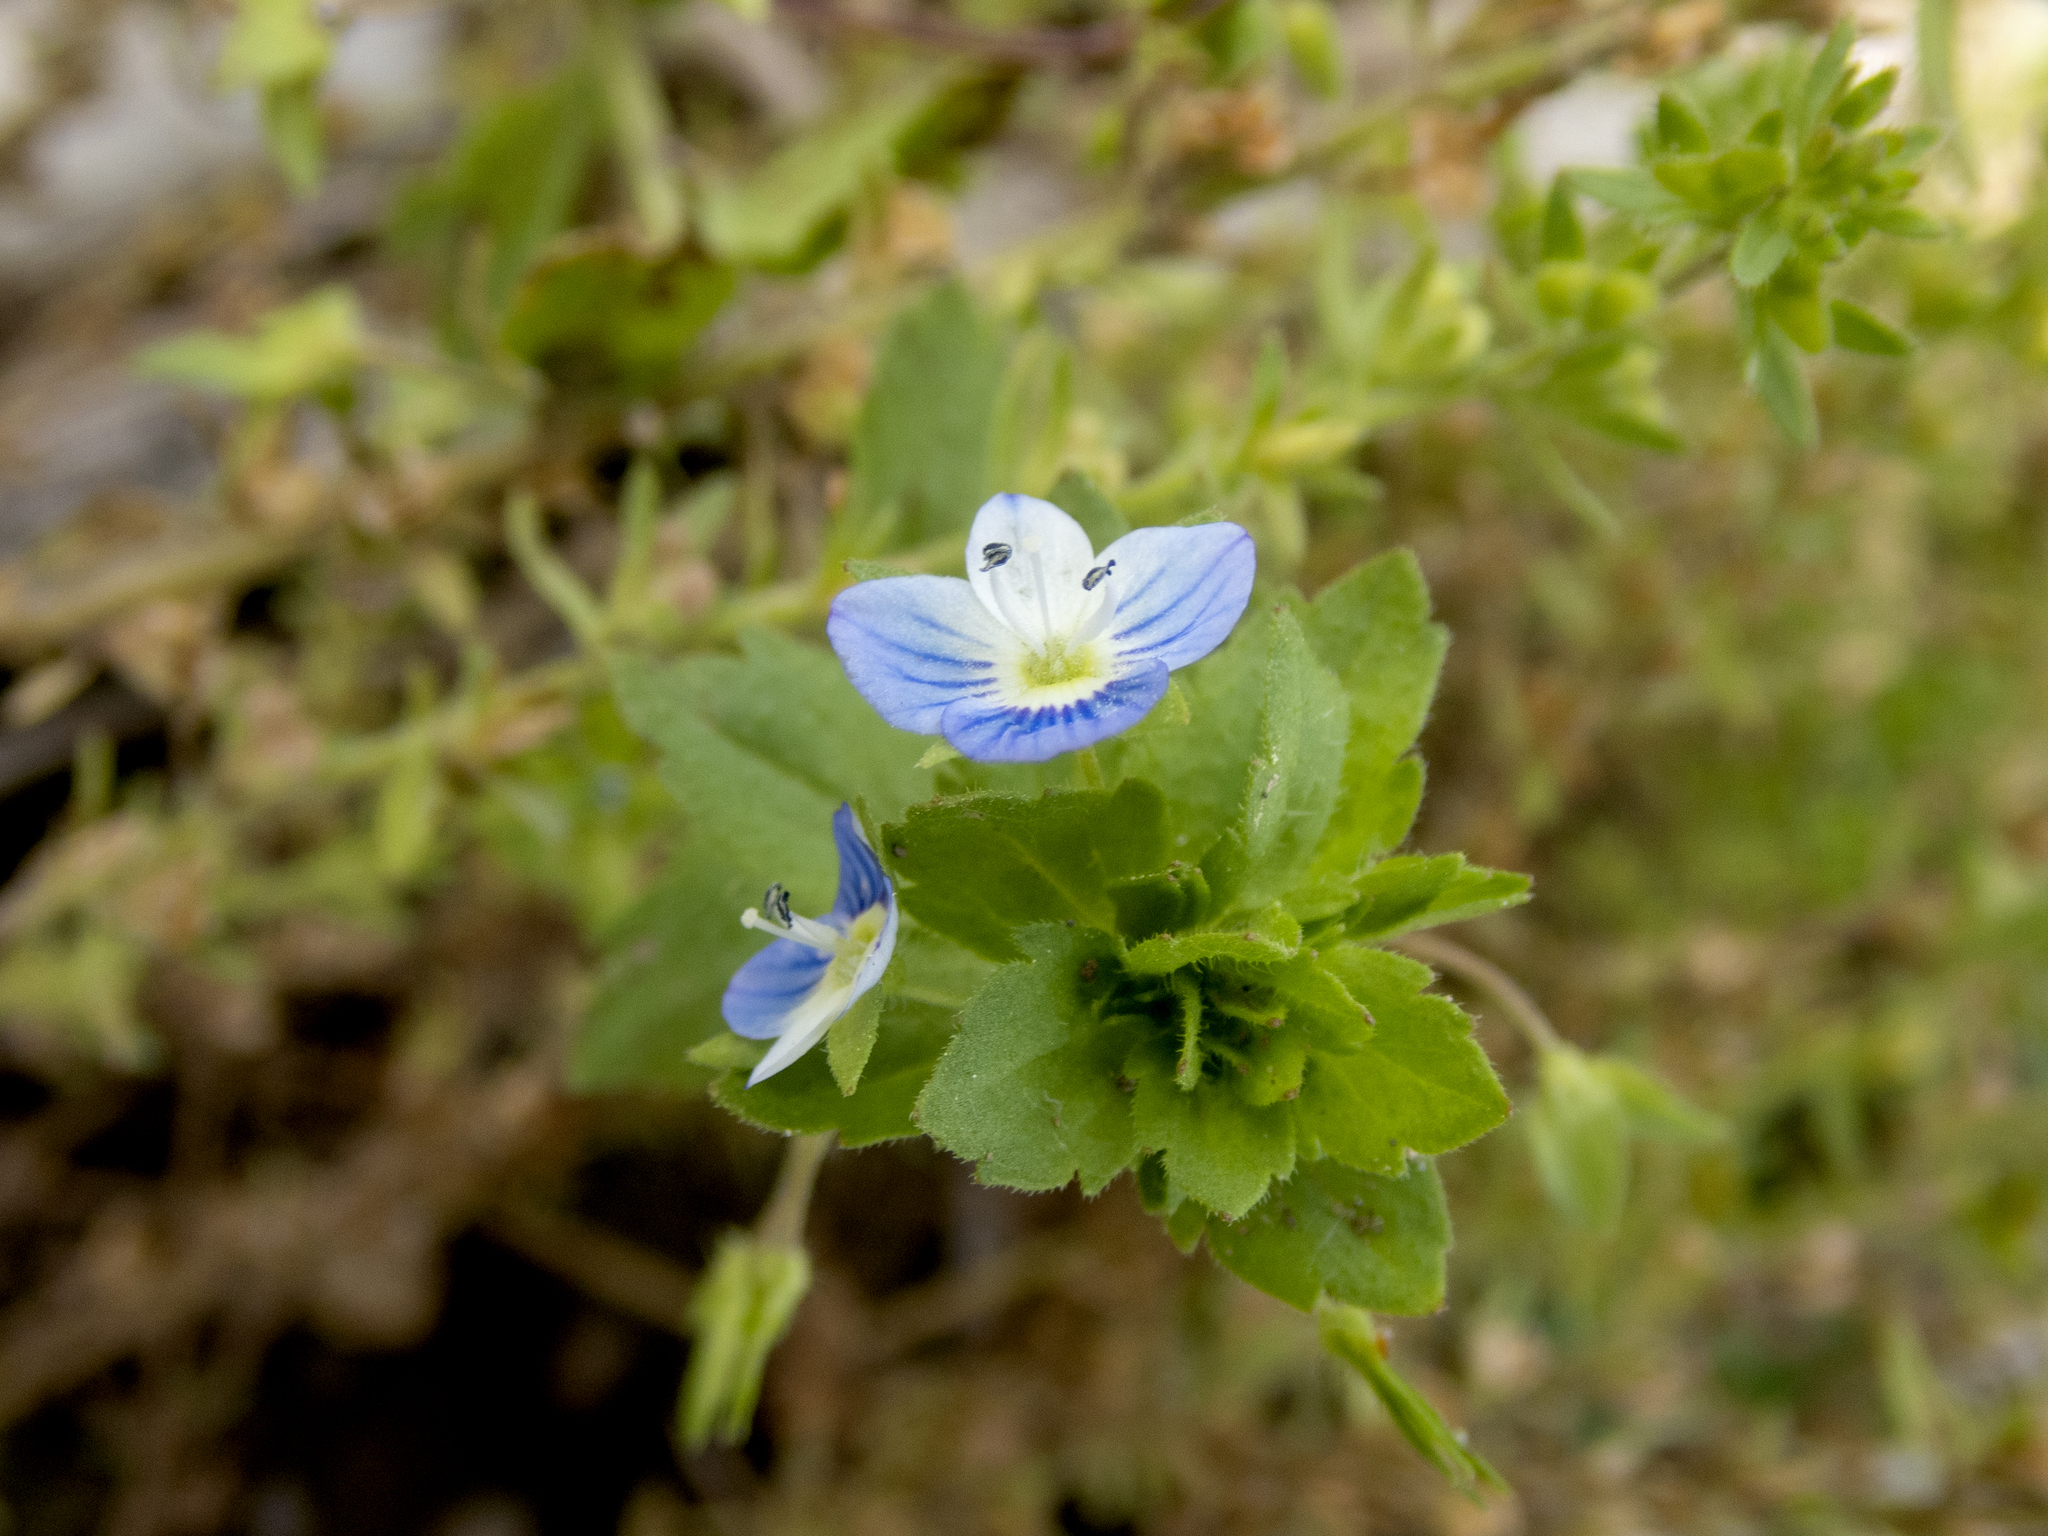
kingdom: Plantae
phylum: Tracheophyta
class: Magnoliopsida
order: Lamiales
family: Plantaginaceae
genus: Veronica
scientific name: Veronica persica
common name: Common field-speedwell
